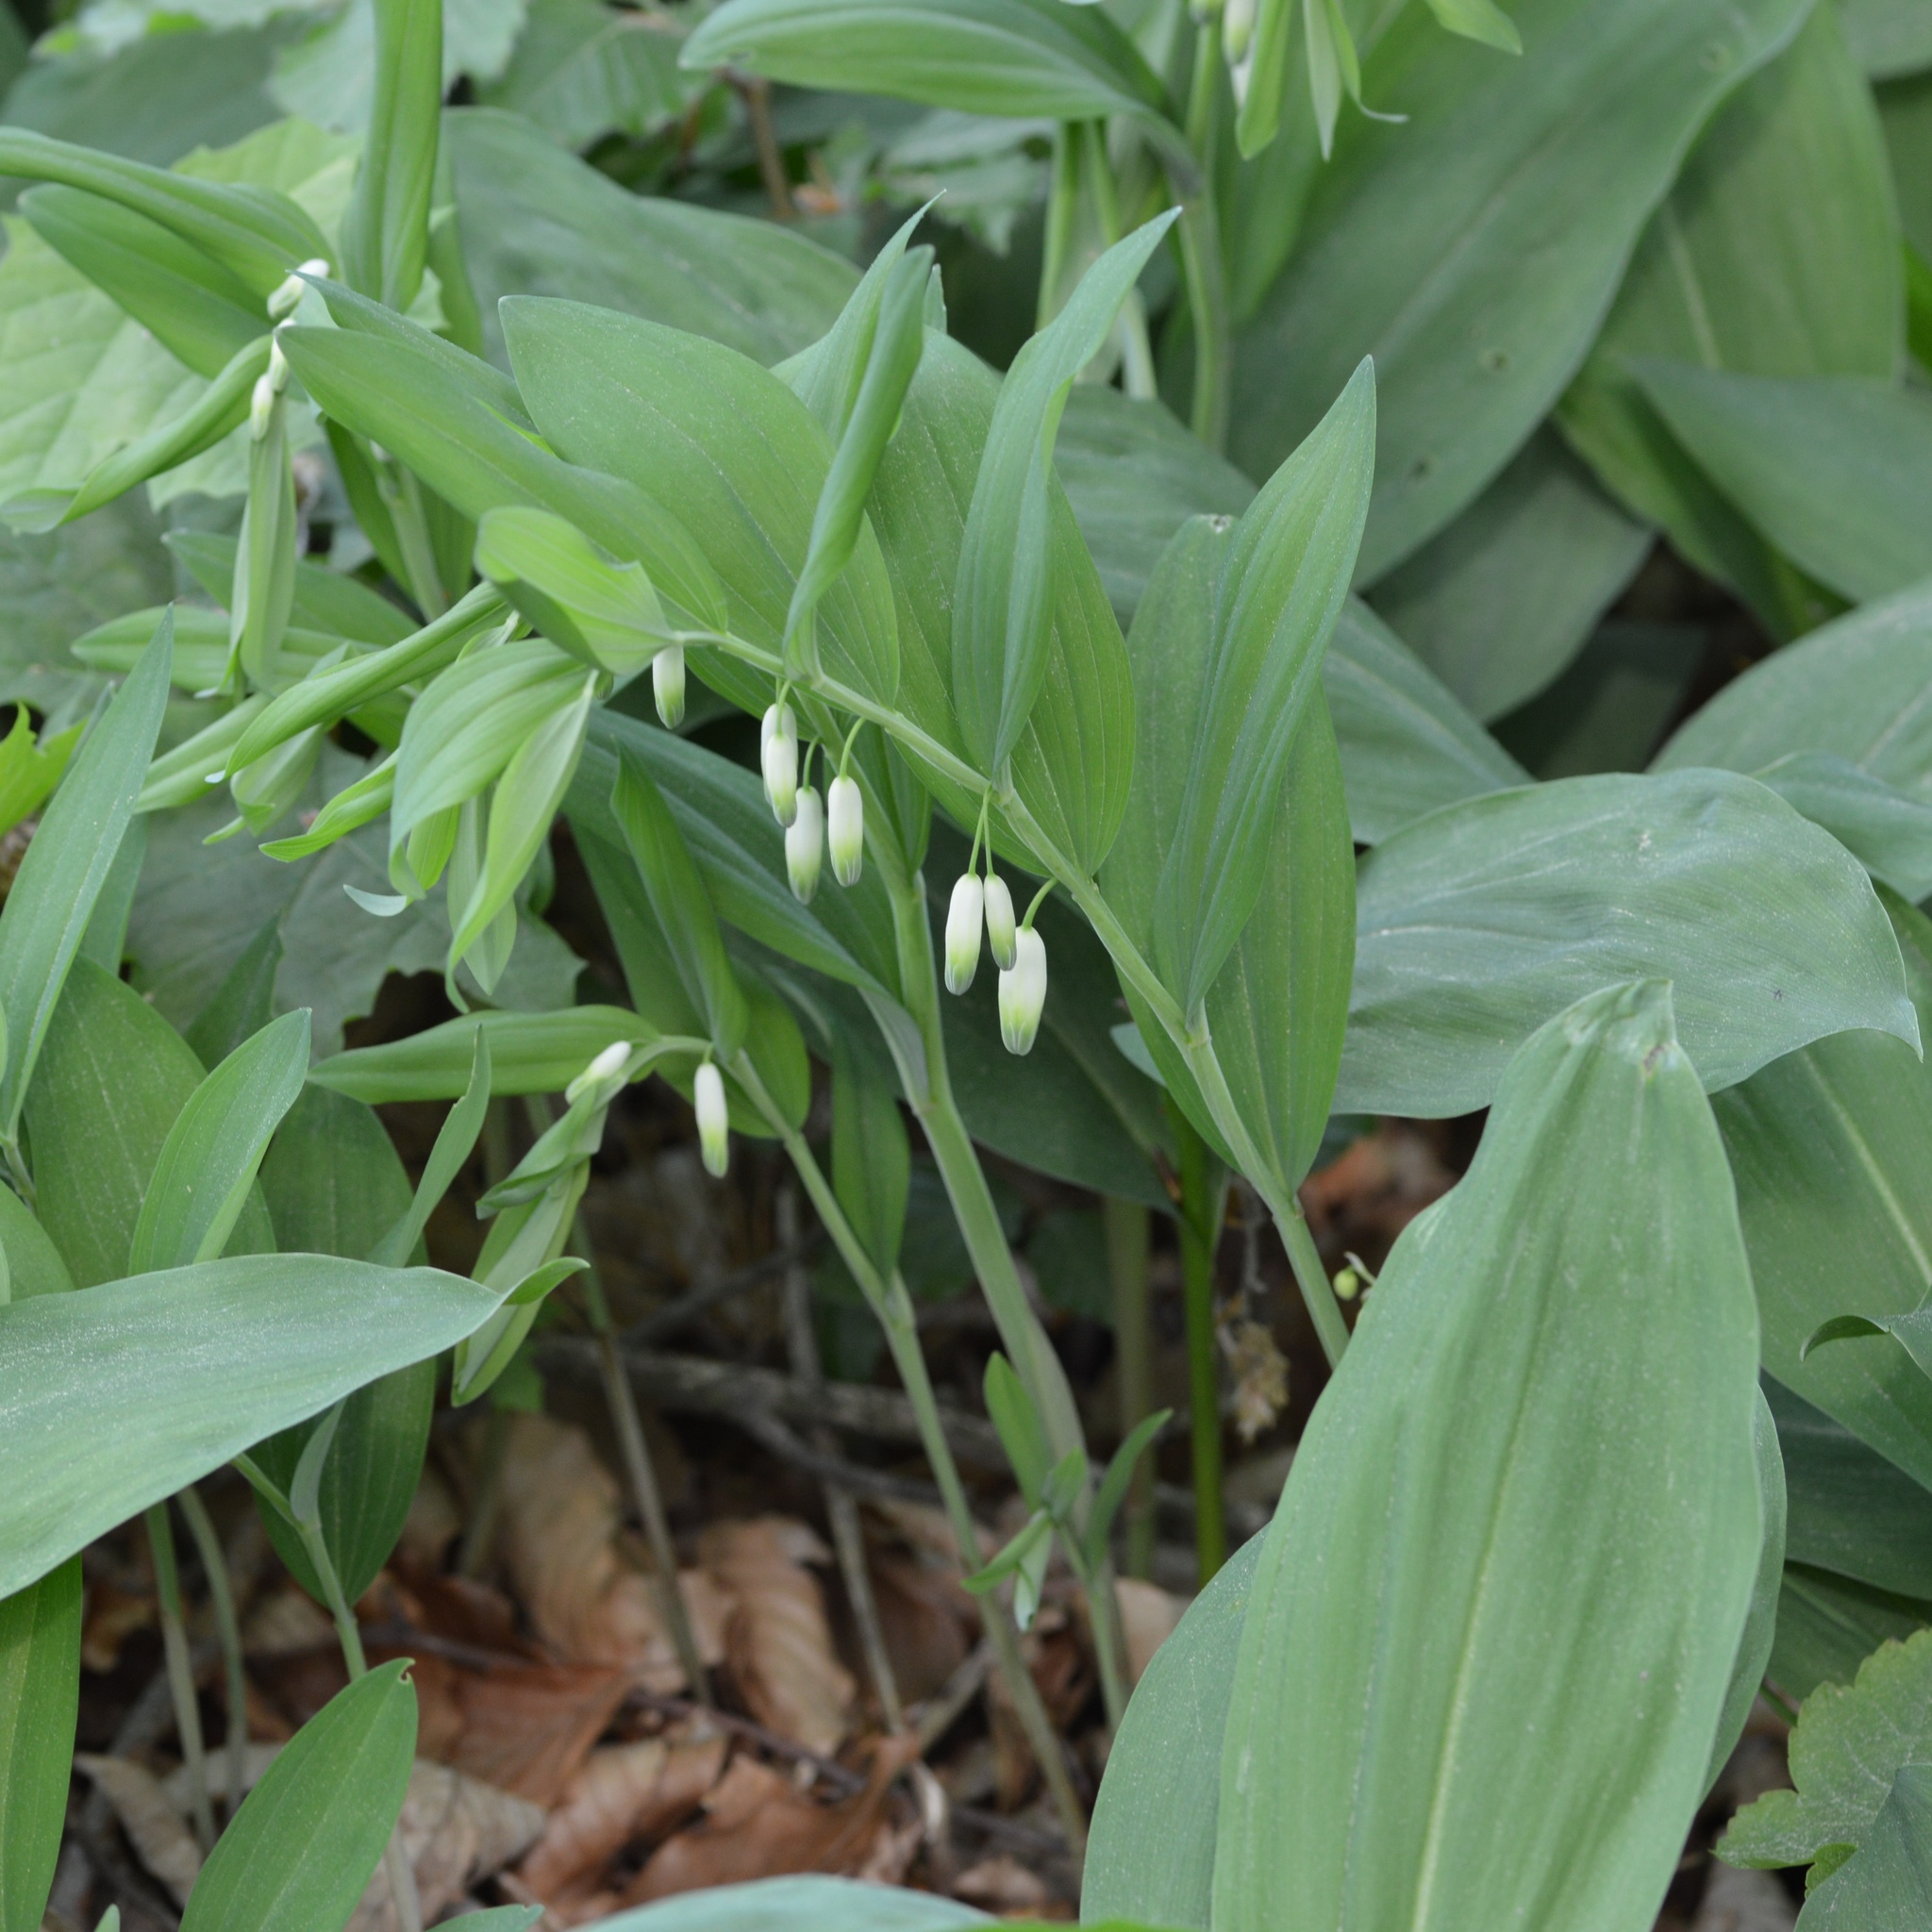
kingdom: Plantae
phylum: Tracheophyta
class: Liliopsida
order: Asparagales
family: Asparagaceae
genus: Polygonatum
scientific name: Polygonatum odoratum
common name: Angular solomon's-seal
